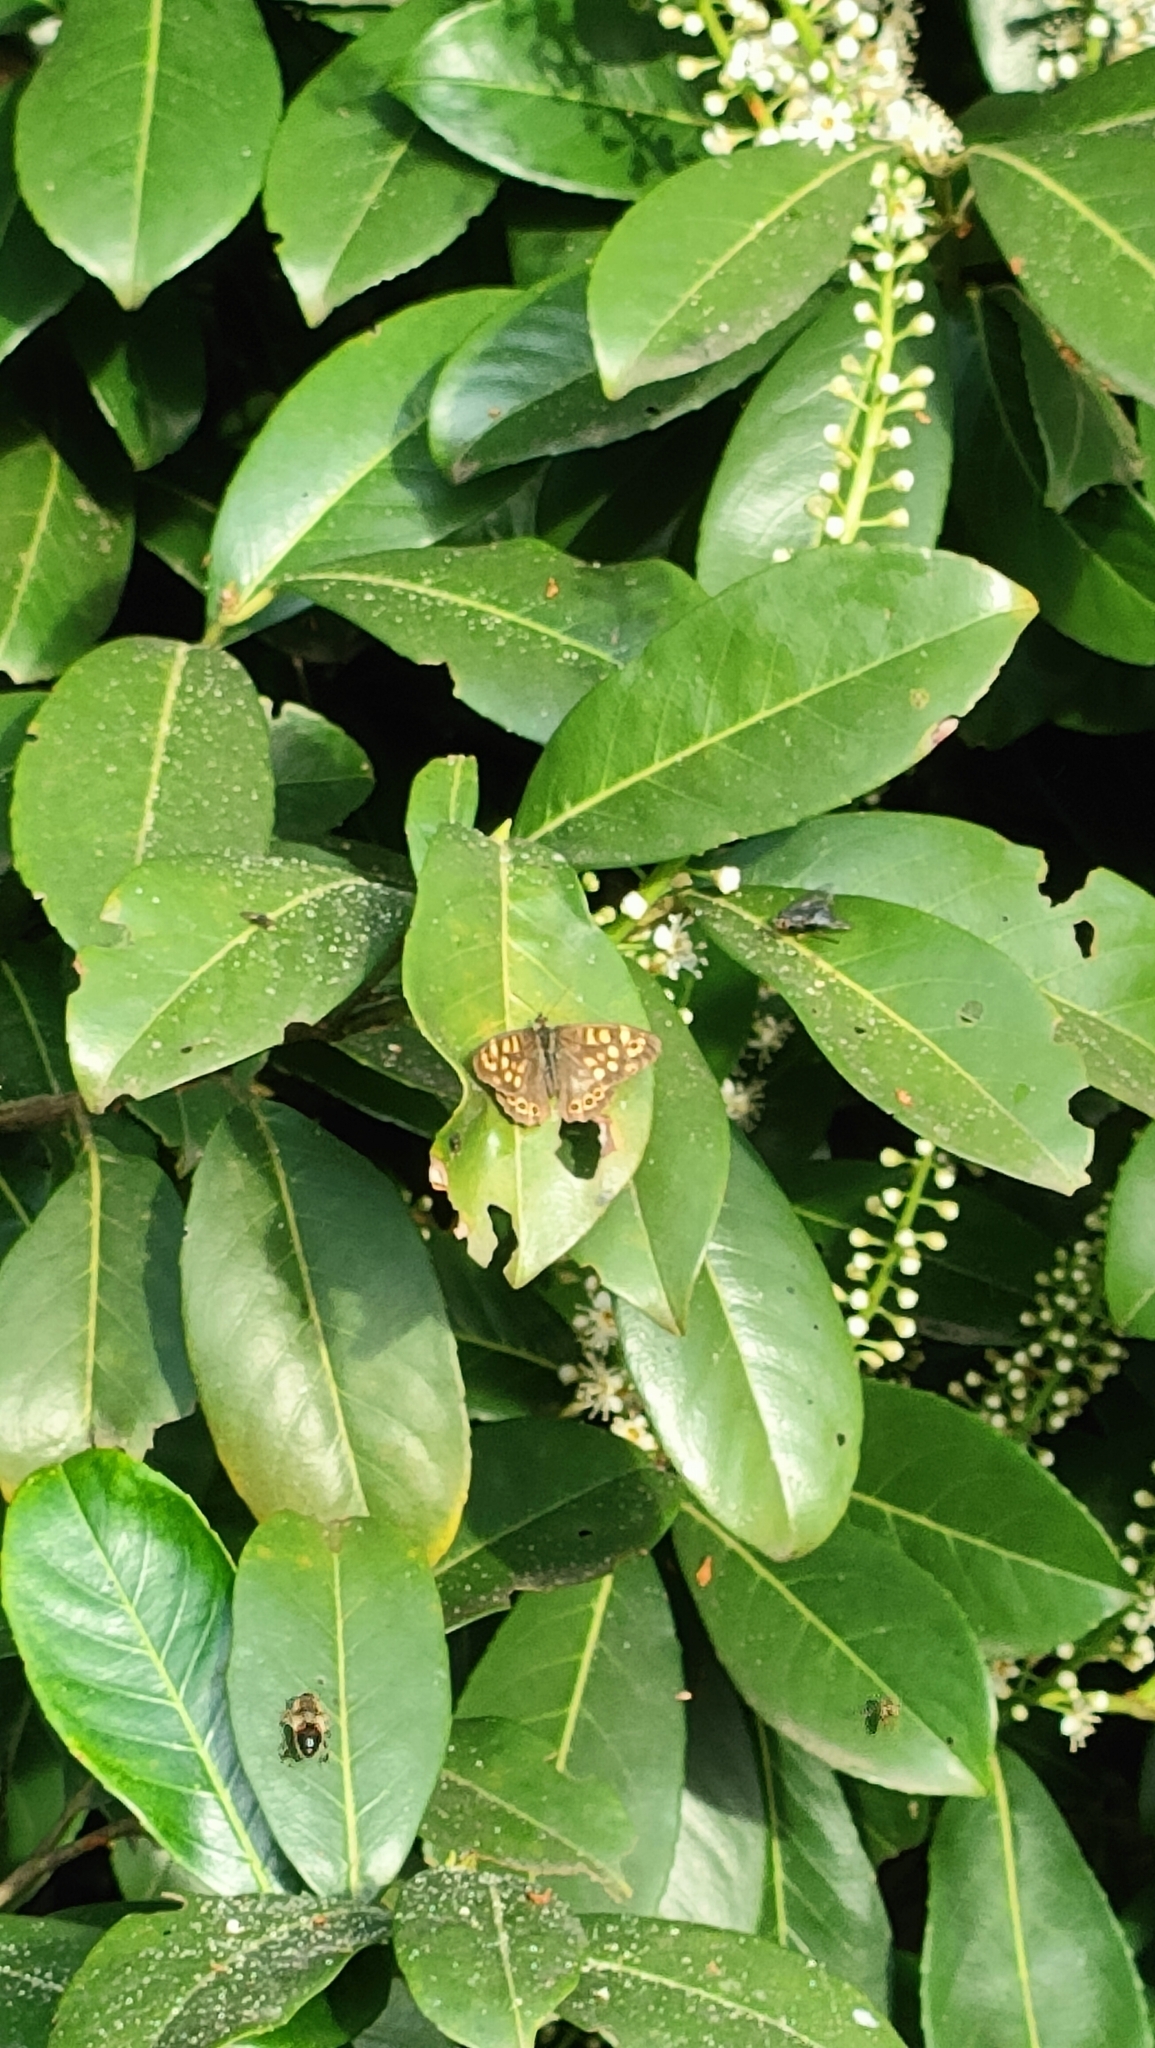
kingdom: Animalia
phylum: Arthropoda
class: Insecta
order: Lepidoptera
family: Nymphalidae
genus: Pararge
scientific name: Pararge aegeria
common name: Speckled wood
